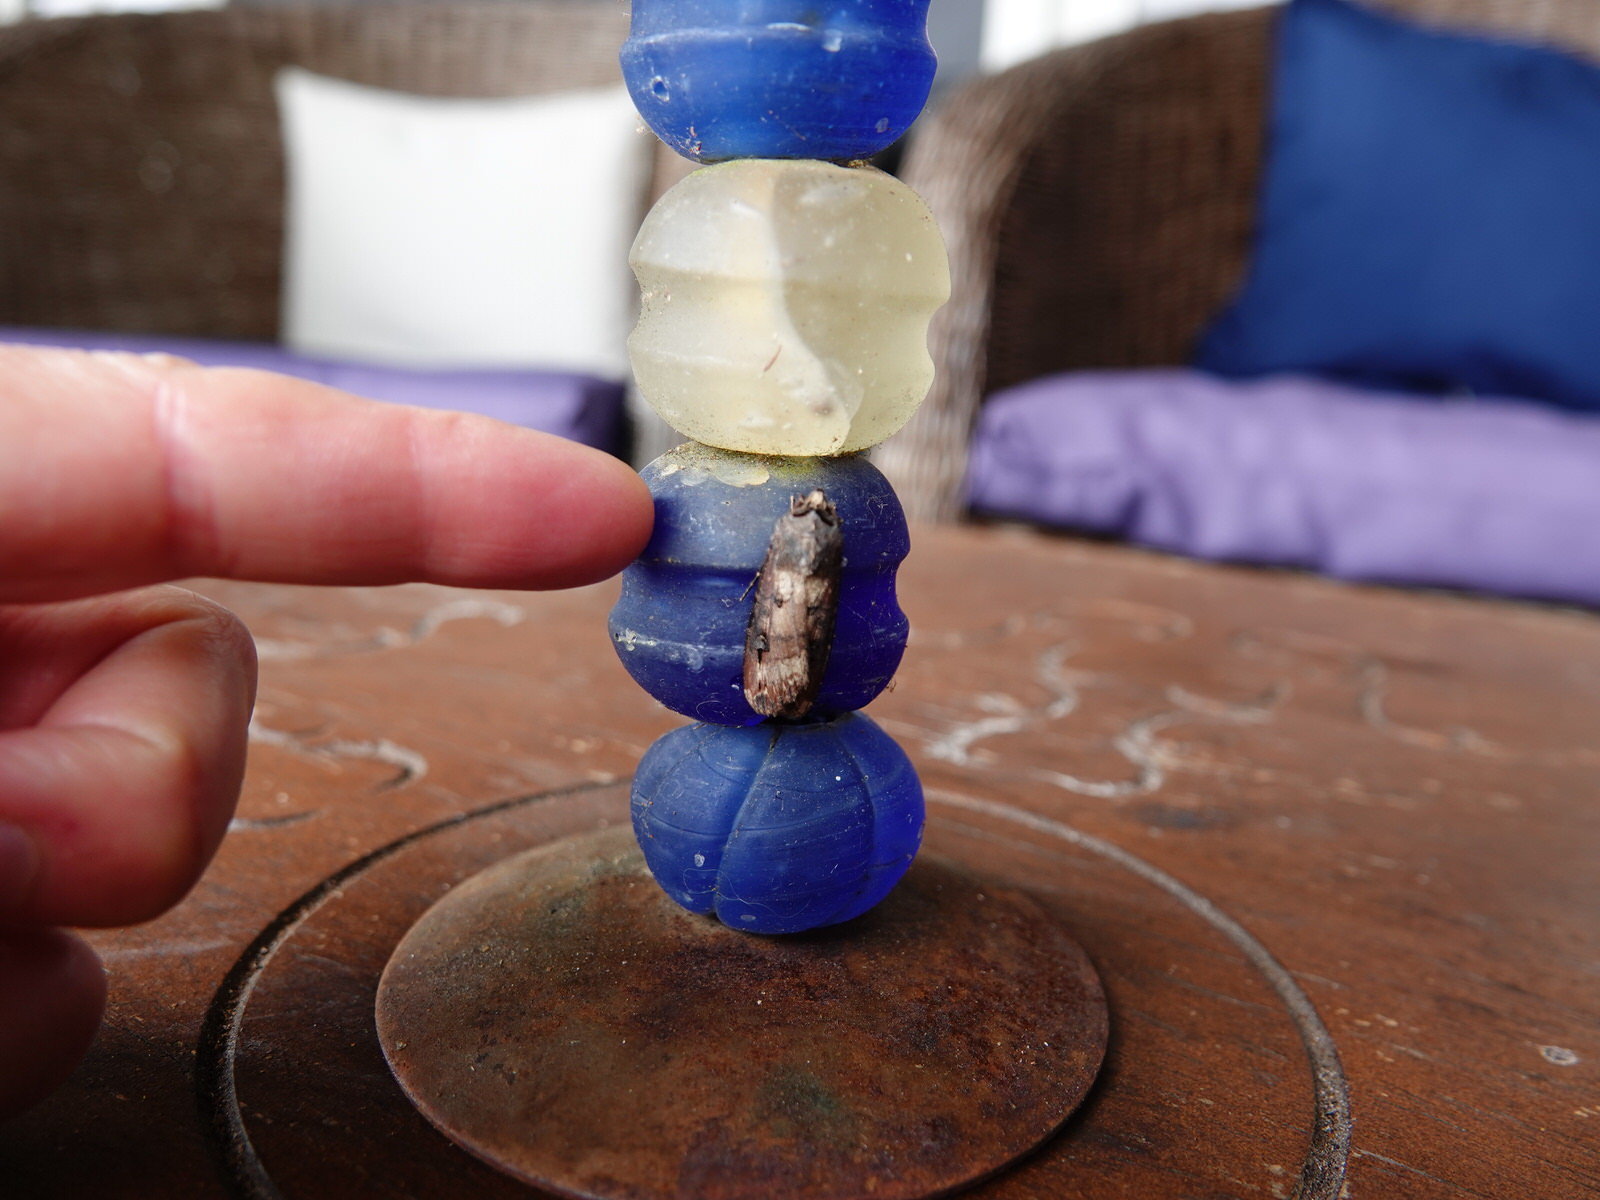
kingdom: Animalia
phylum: Arthropoda
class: Insecta
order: Lepidoptera
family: Noctuidae
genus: Agrotis
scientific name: Agrotis ipsilon
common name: Dark sword-grass
